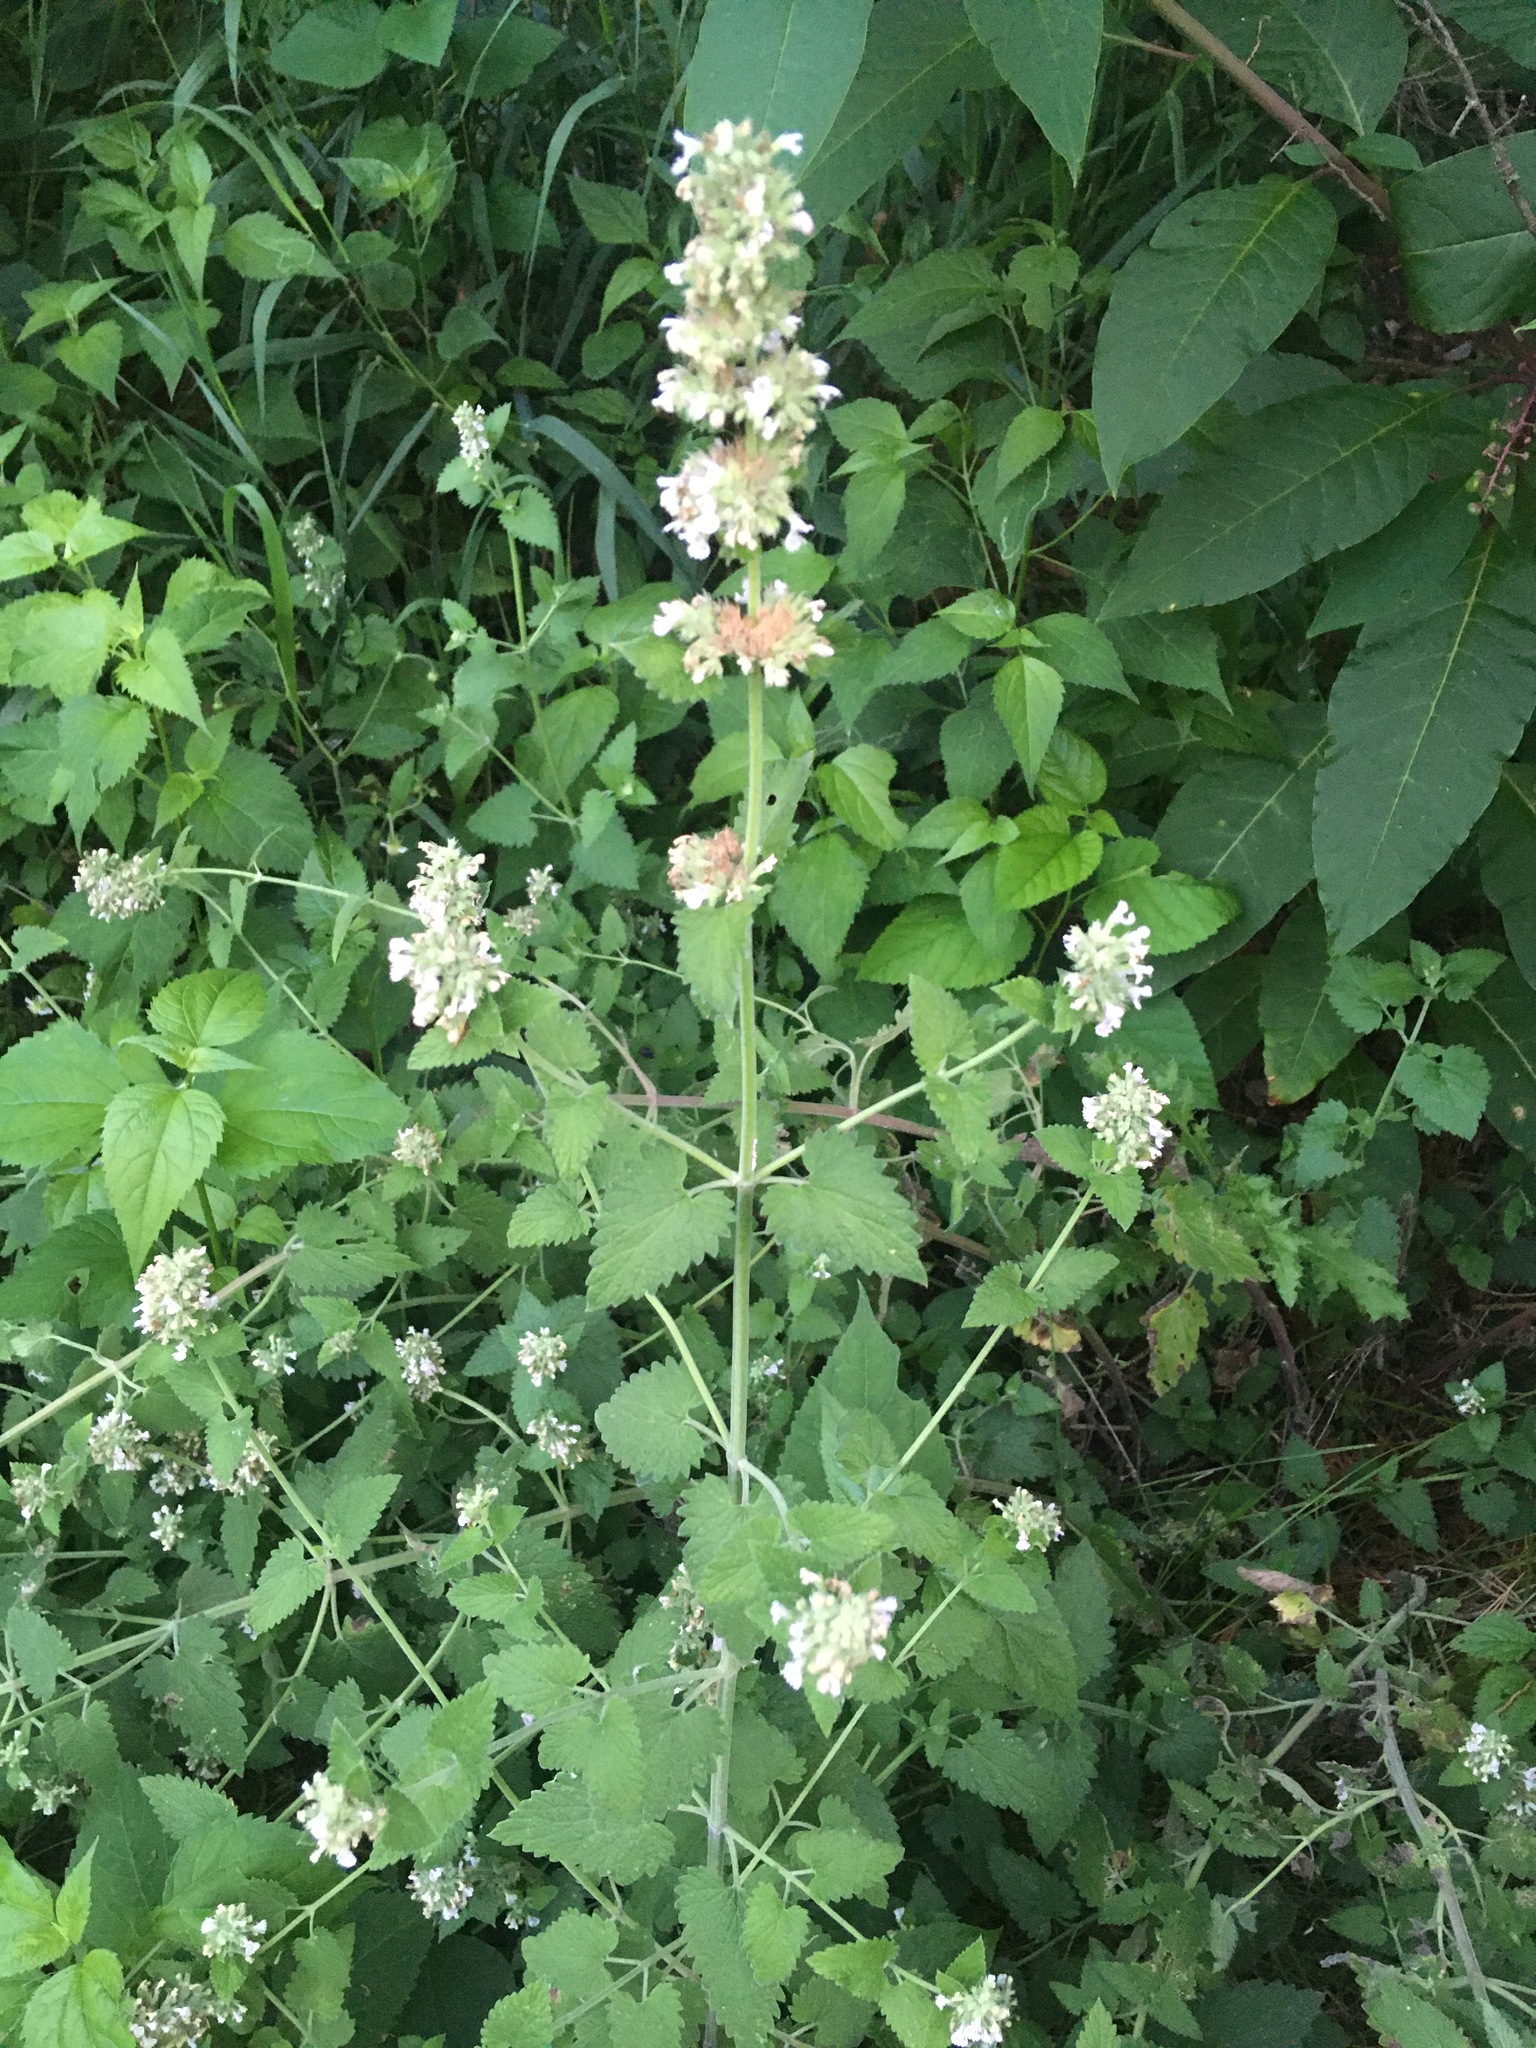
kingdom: Plantae
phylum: Tracheophyta
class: Magnoliopsida
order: Lamiales
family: Lamiaceae
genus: Nepeta
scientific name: Nepeta cataria
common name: Catnip
